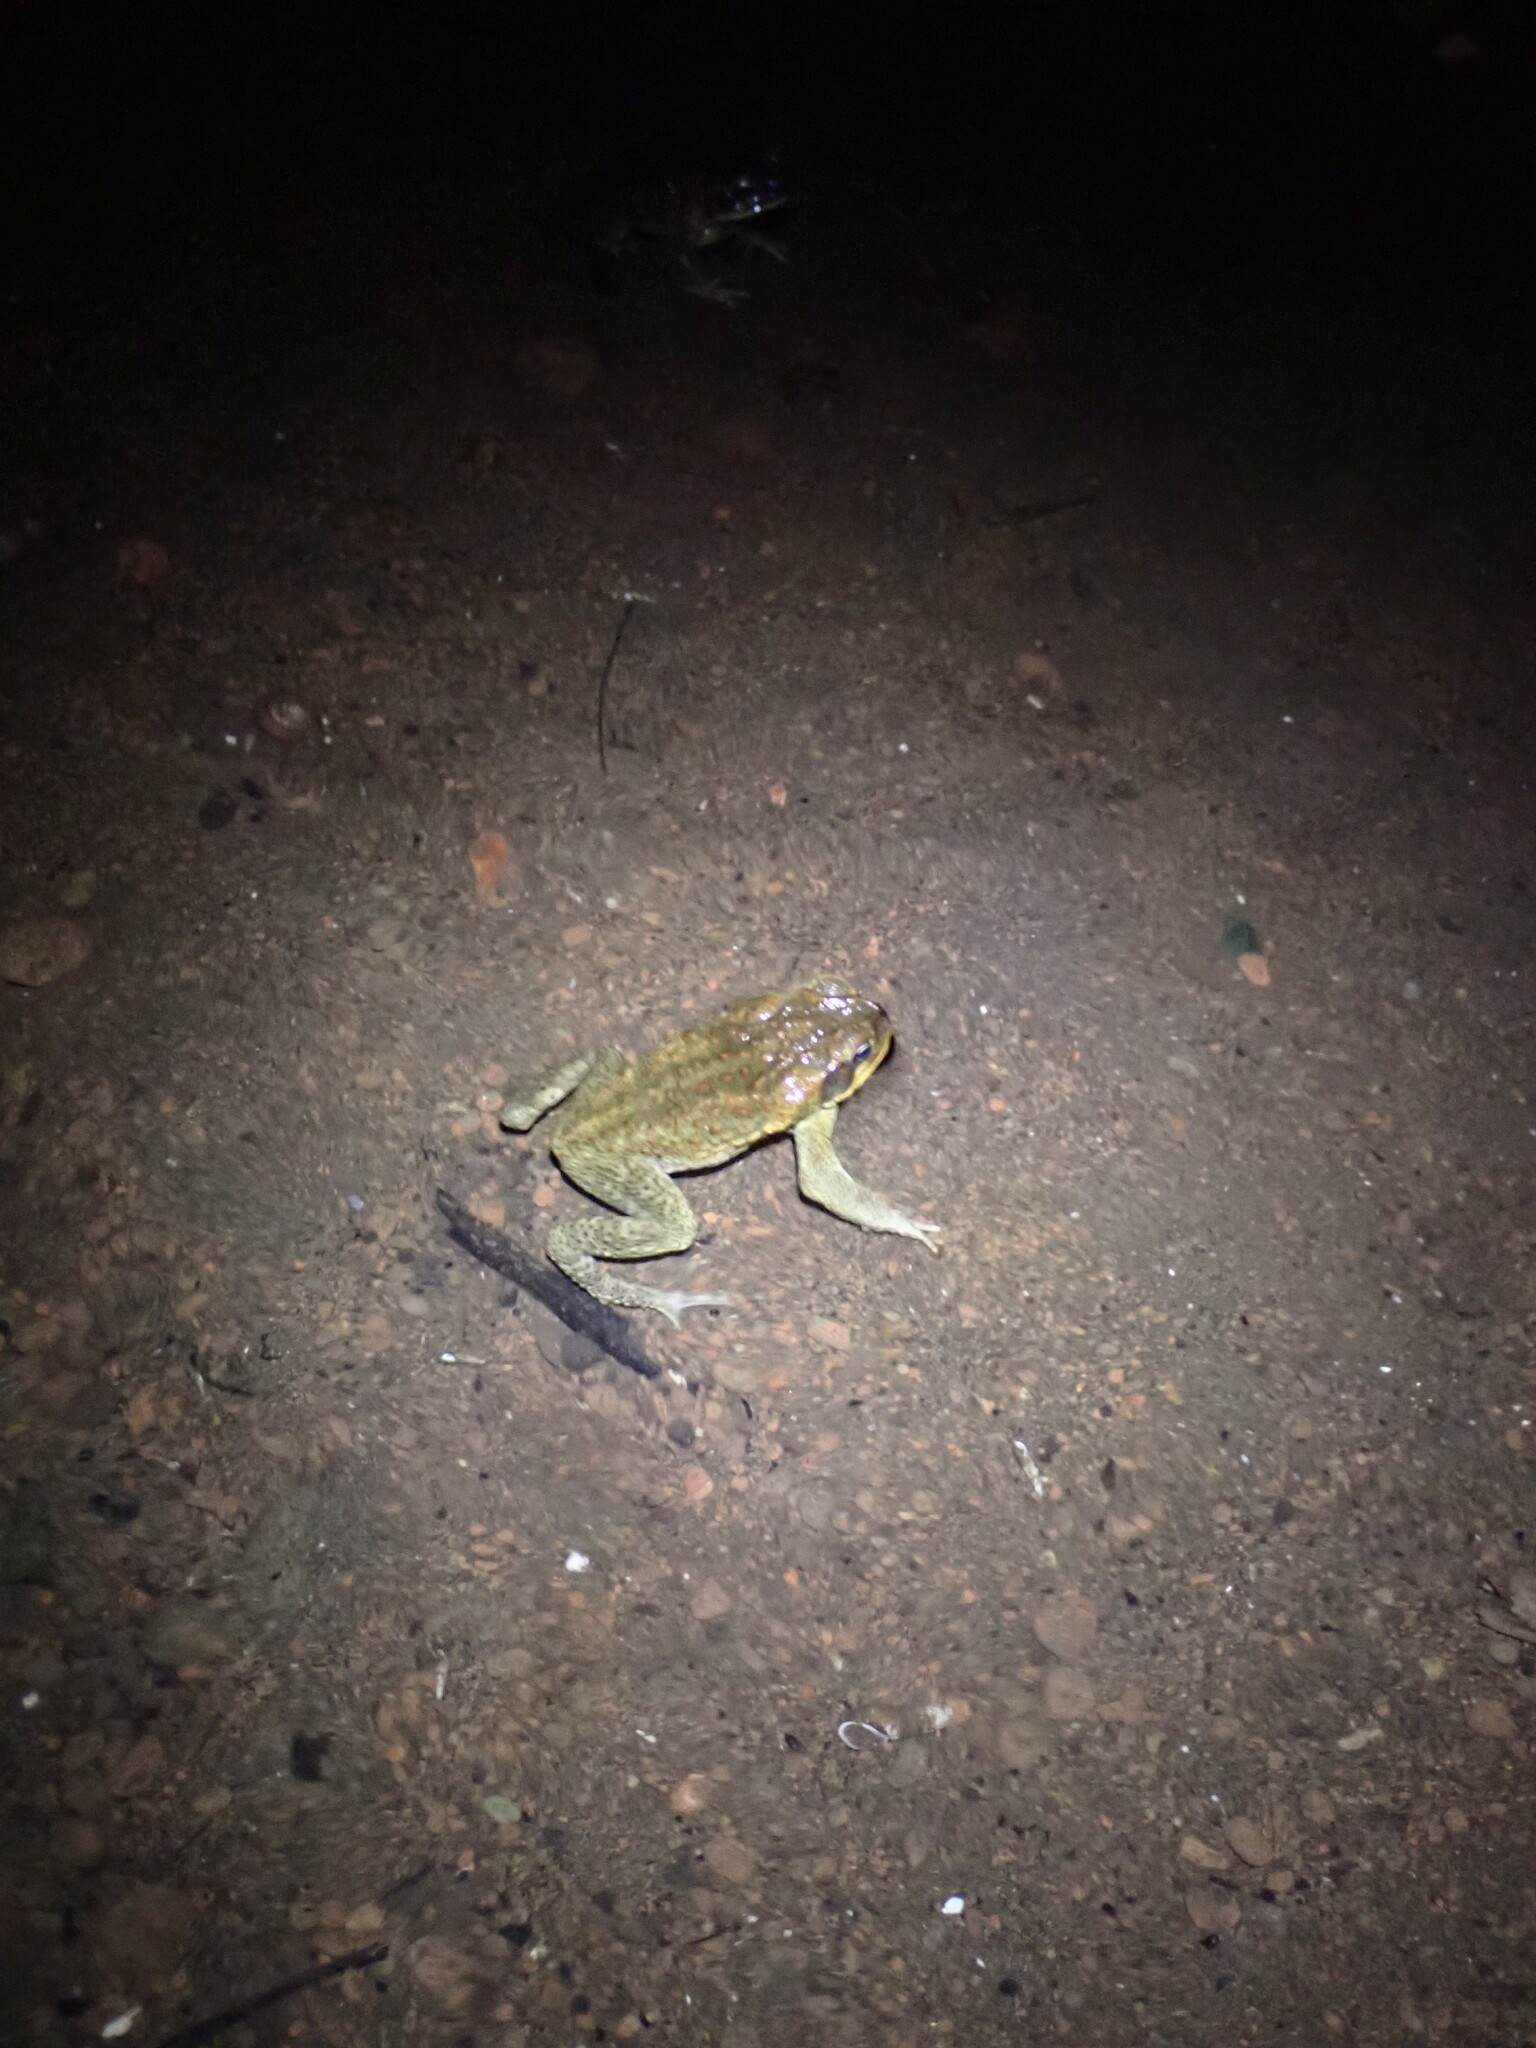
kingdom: Animalia
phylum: Chordata
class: Amphibia
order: Anura
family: Bufonidae
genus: Rhinella
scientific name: Rhinella marina
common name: Cane toad
